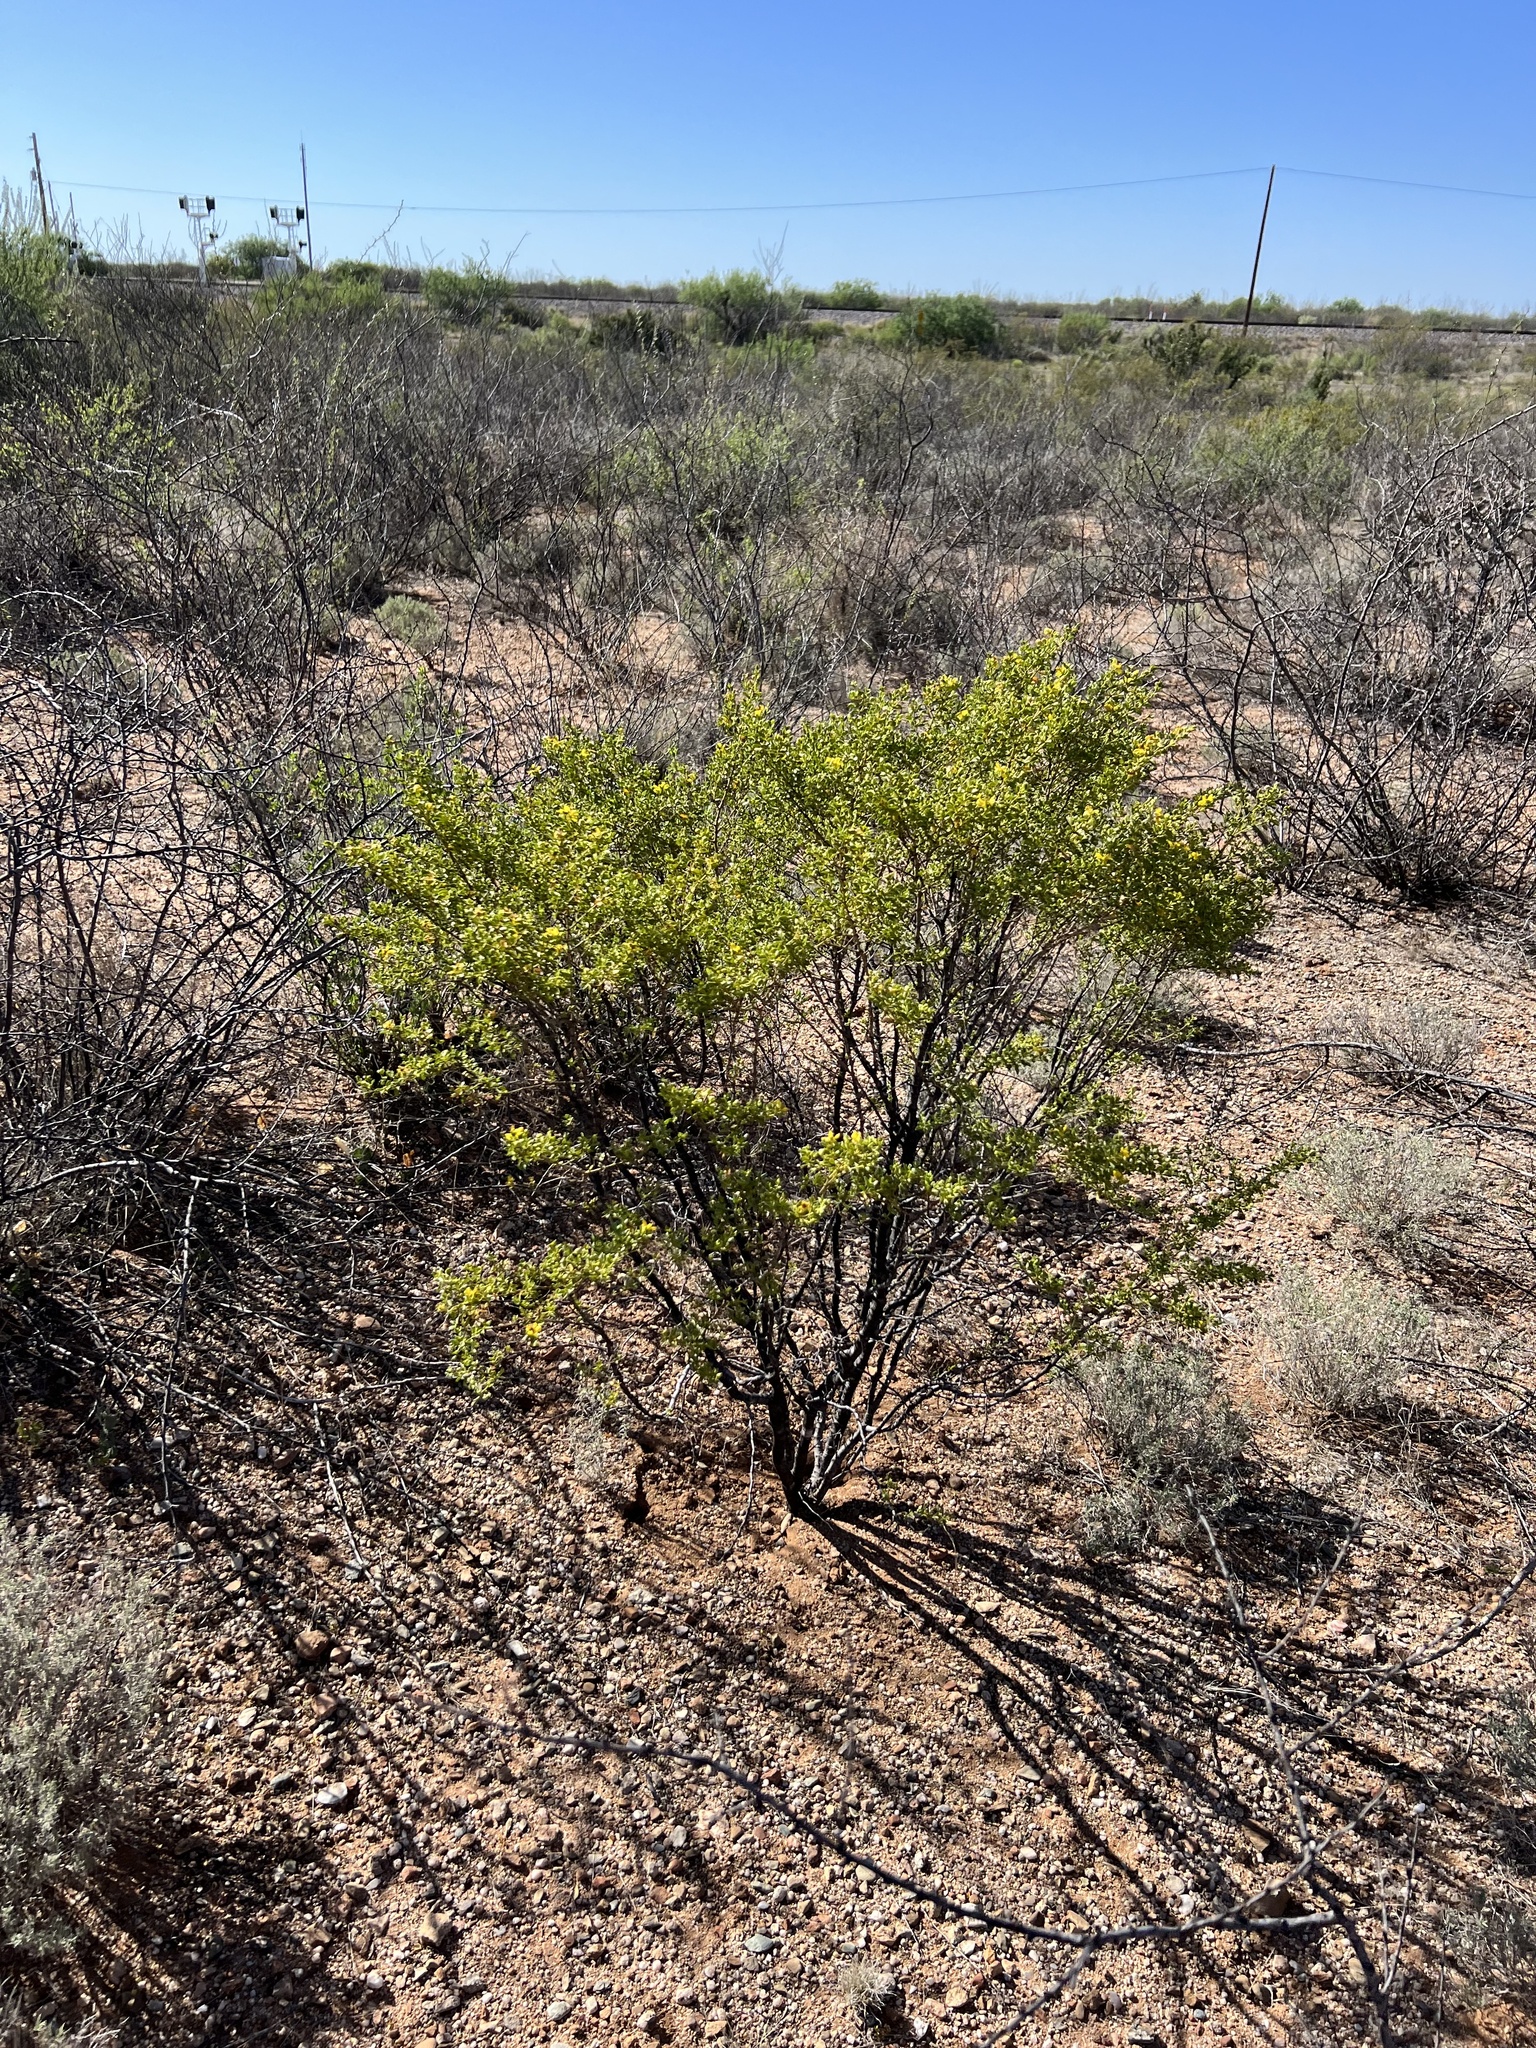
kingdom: Plantae
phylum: Tracheophyta
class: Magnoliopsida
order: Zygophyllales
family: Zygophyllaceae
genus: Larrea
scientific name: Larrea tridentata
